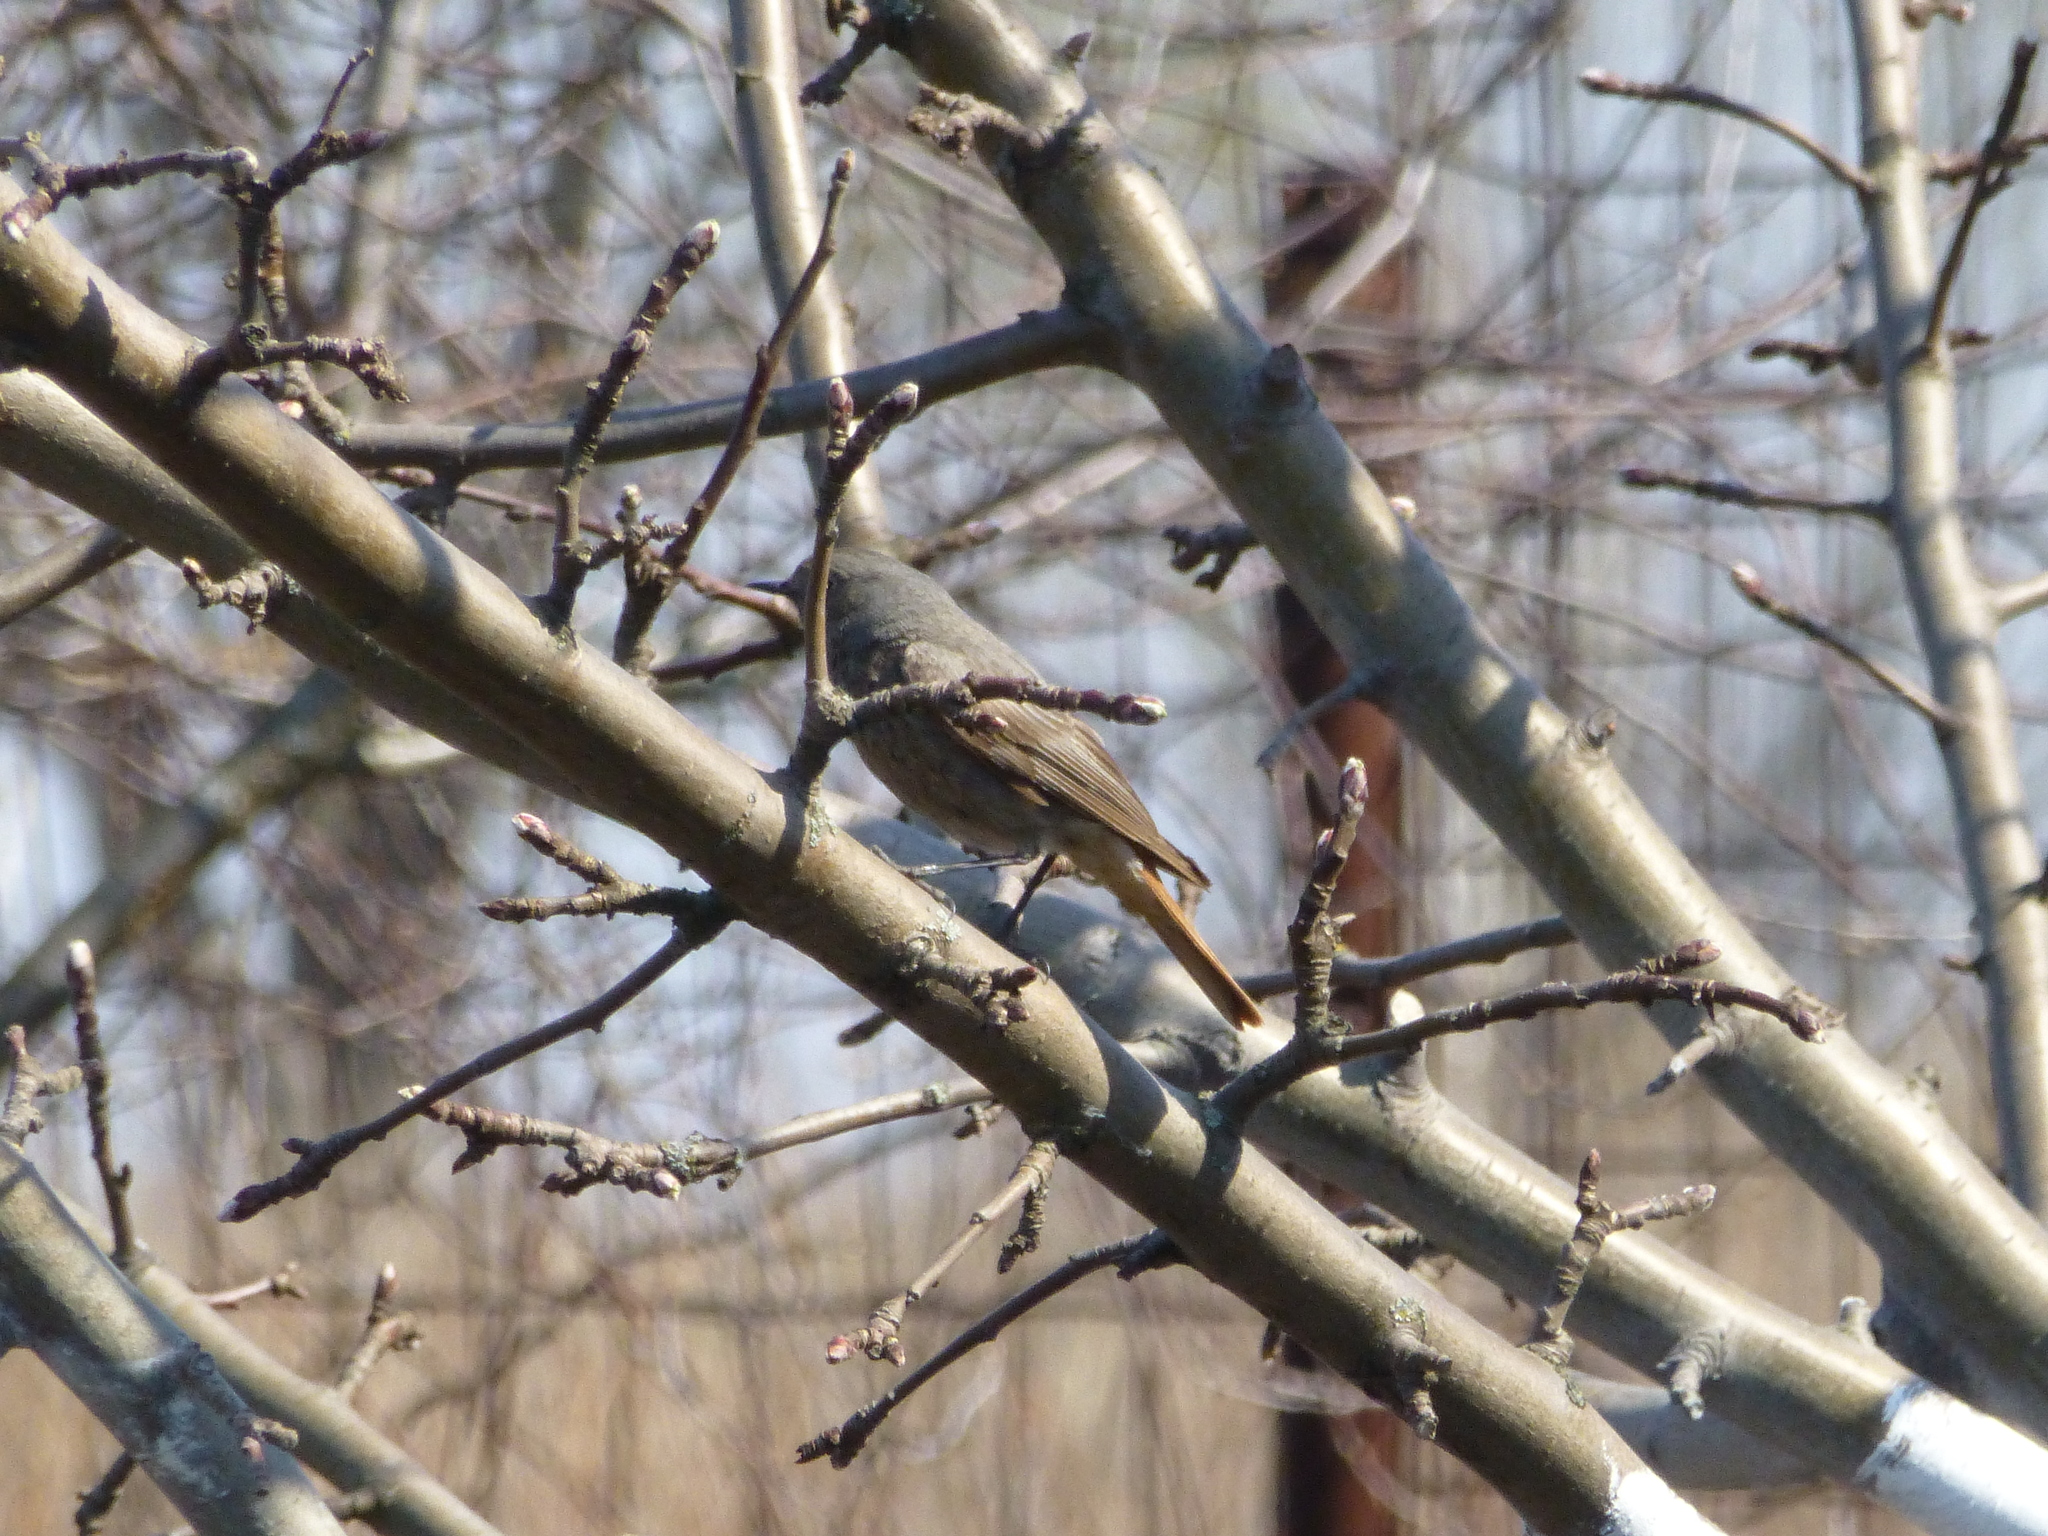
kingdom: Animalia
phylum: Chordata
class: Aves
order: Passeriformes
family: Muscicapidae
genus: Phoenicurus
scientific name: Phoenicurus ochruros
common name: Black redstart
